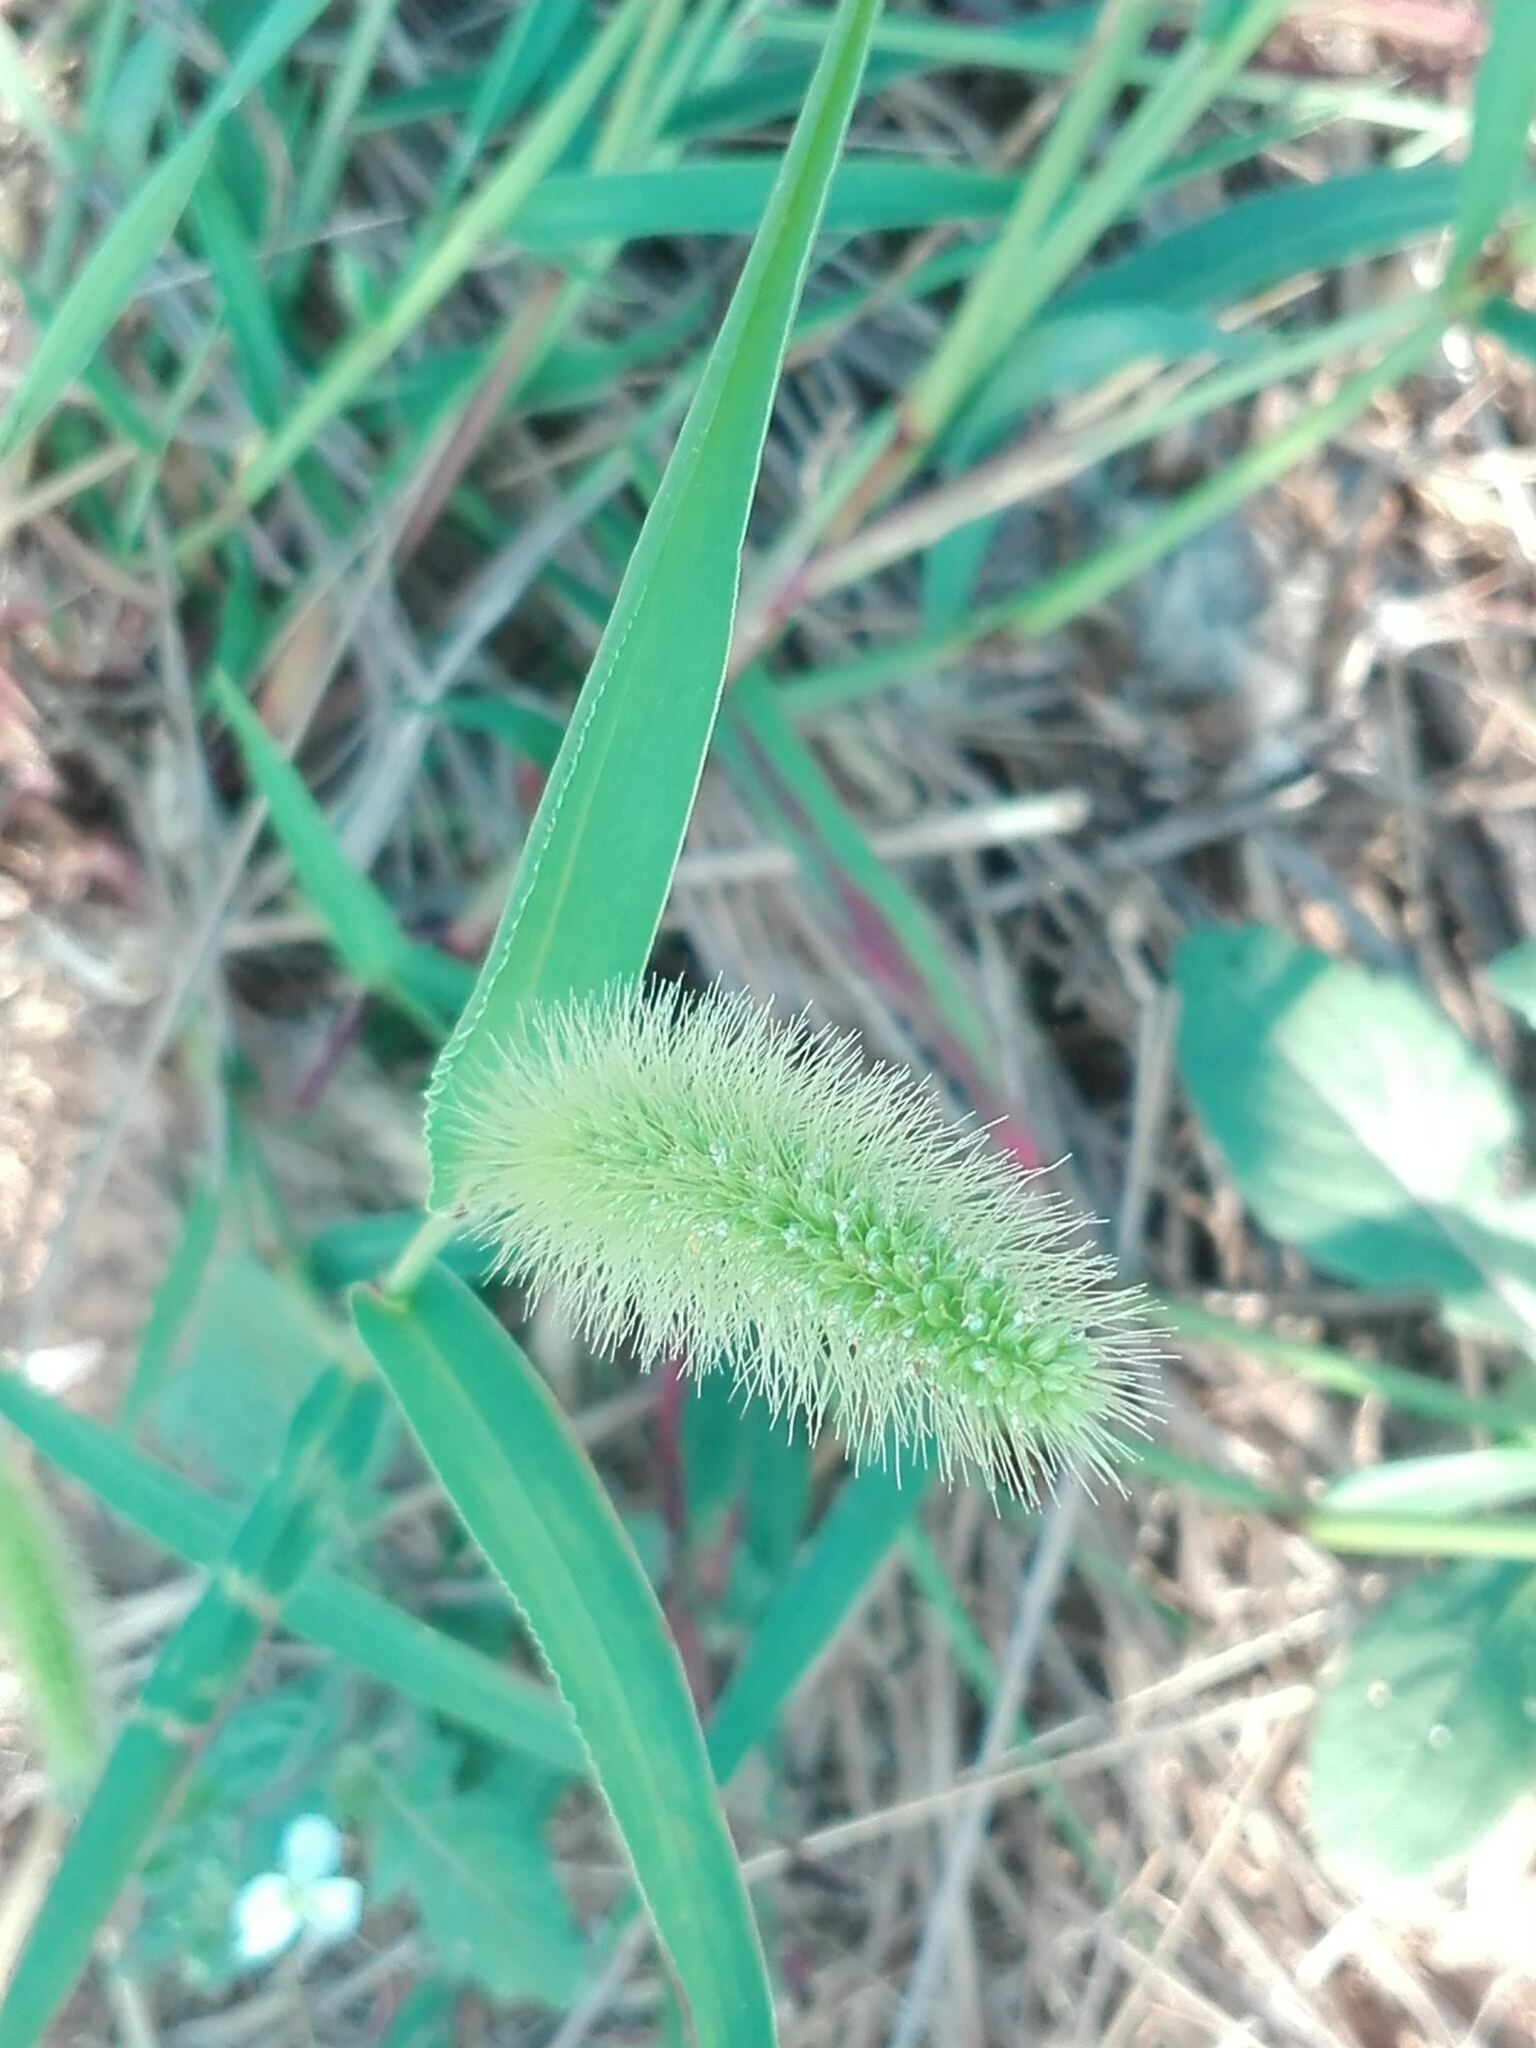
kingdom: Plantae
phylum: Tracheophyta
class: Liliopsida
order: Poales
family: Poaceae
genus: Setaria
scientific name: Setaria viridis
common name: Green bristlegrass
